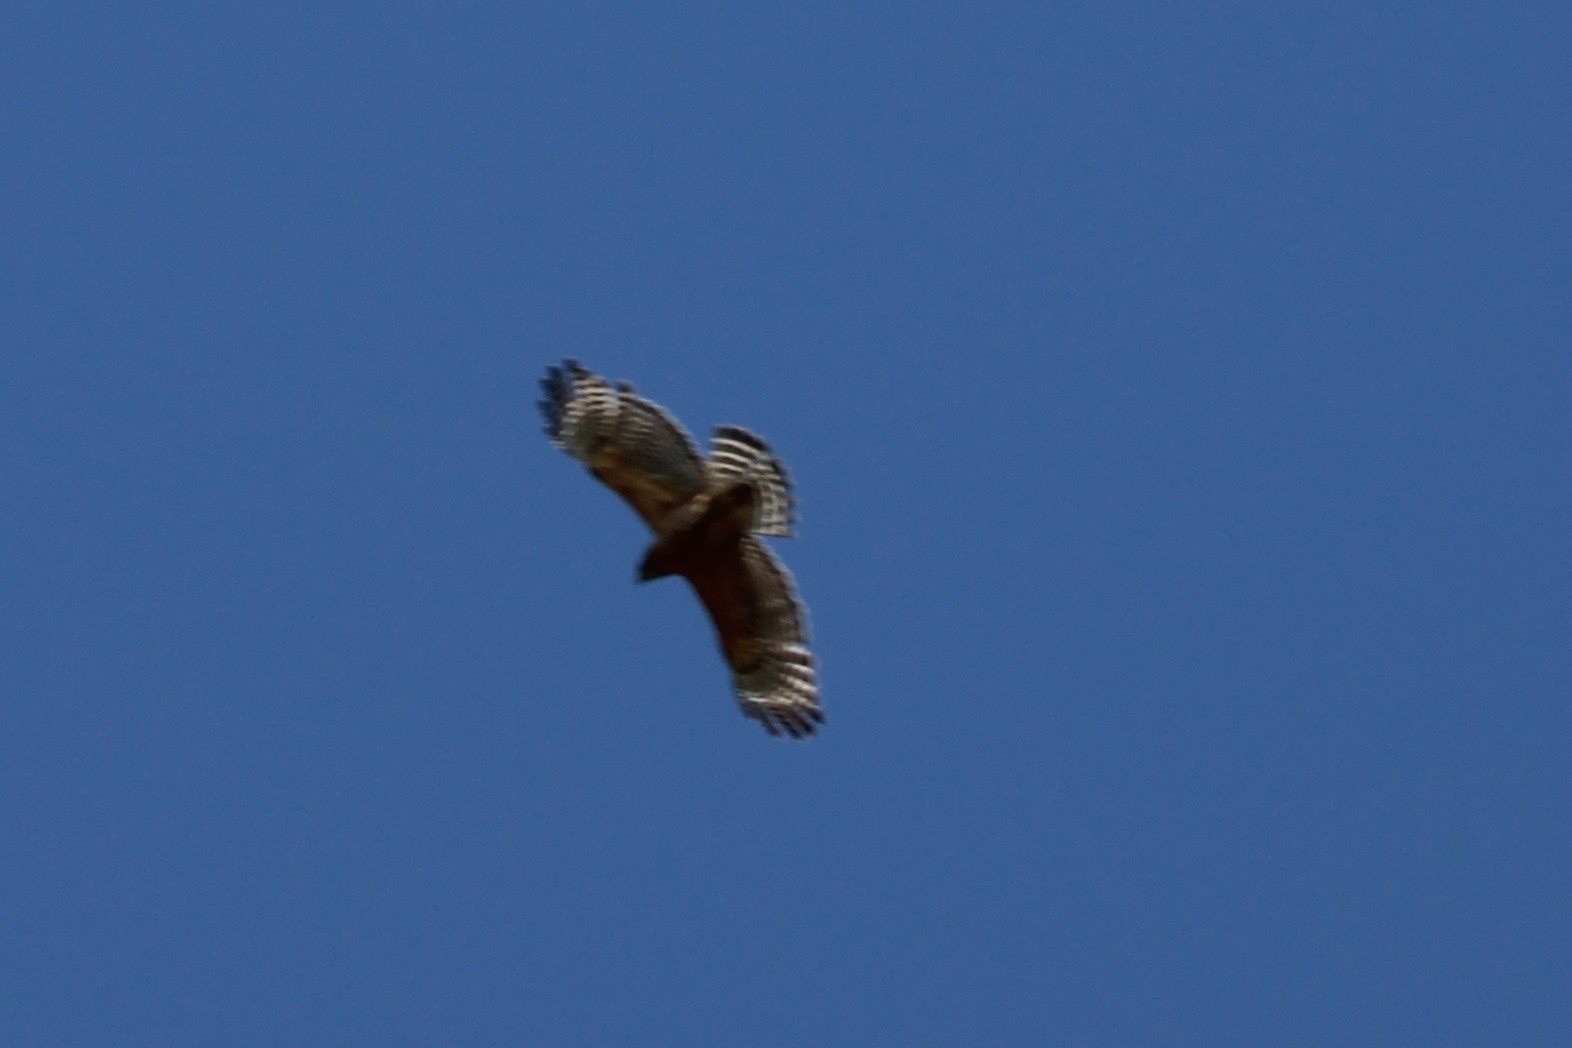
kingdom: Animalia
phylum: Chordata
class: Aves
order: Accipitriformes
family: Accipitridae
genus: Buteo
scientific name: Buteo lineatus
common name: Red-shouldered hawk
